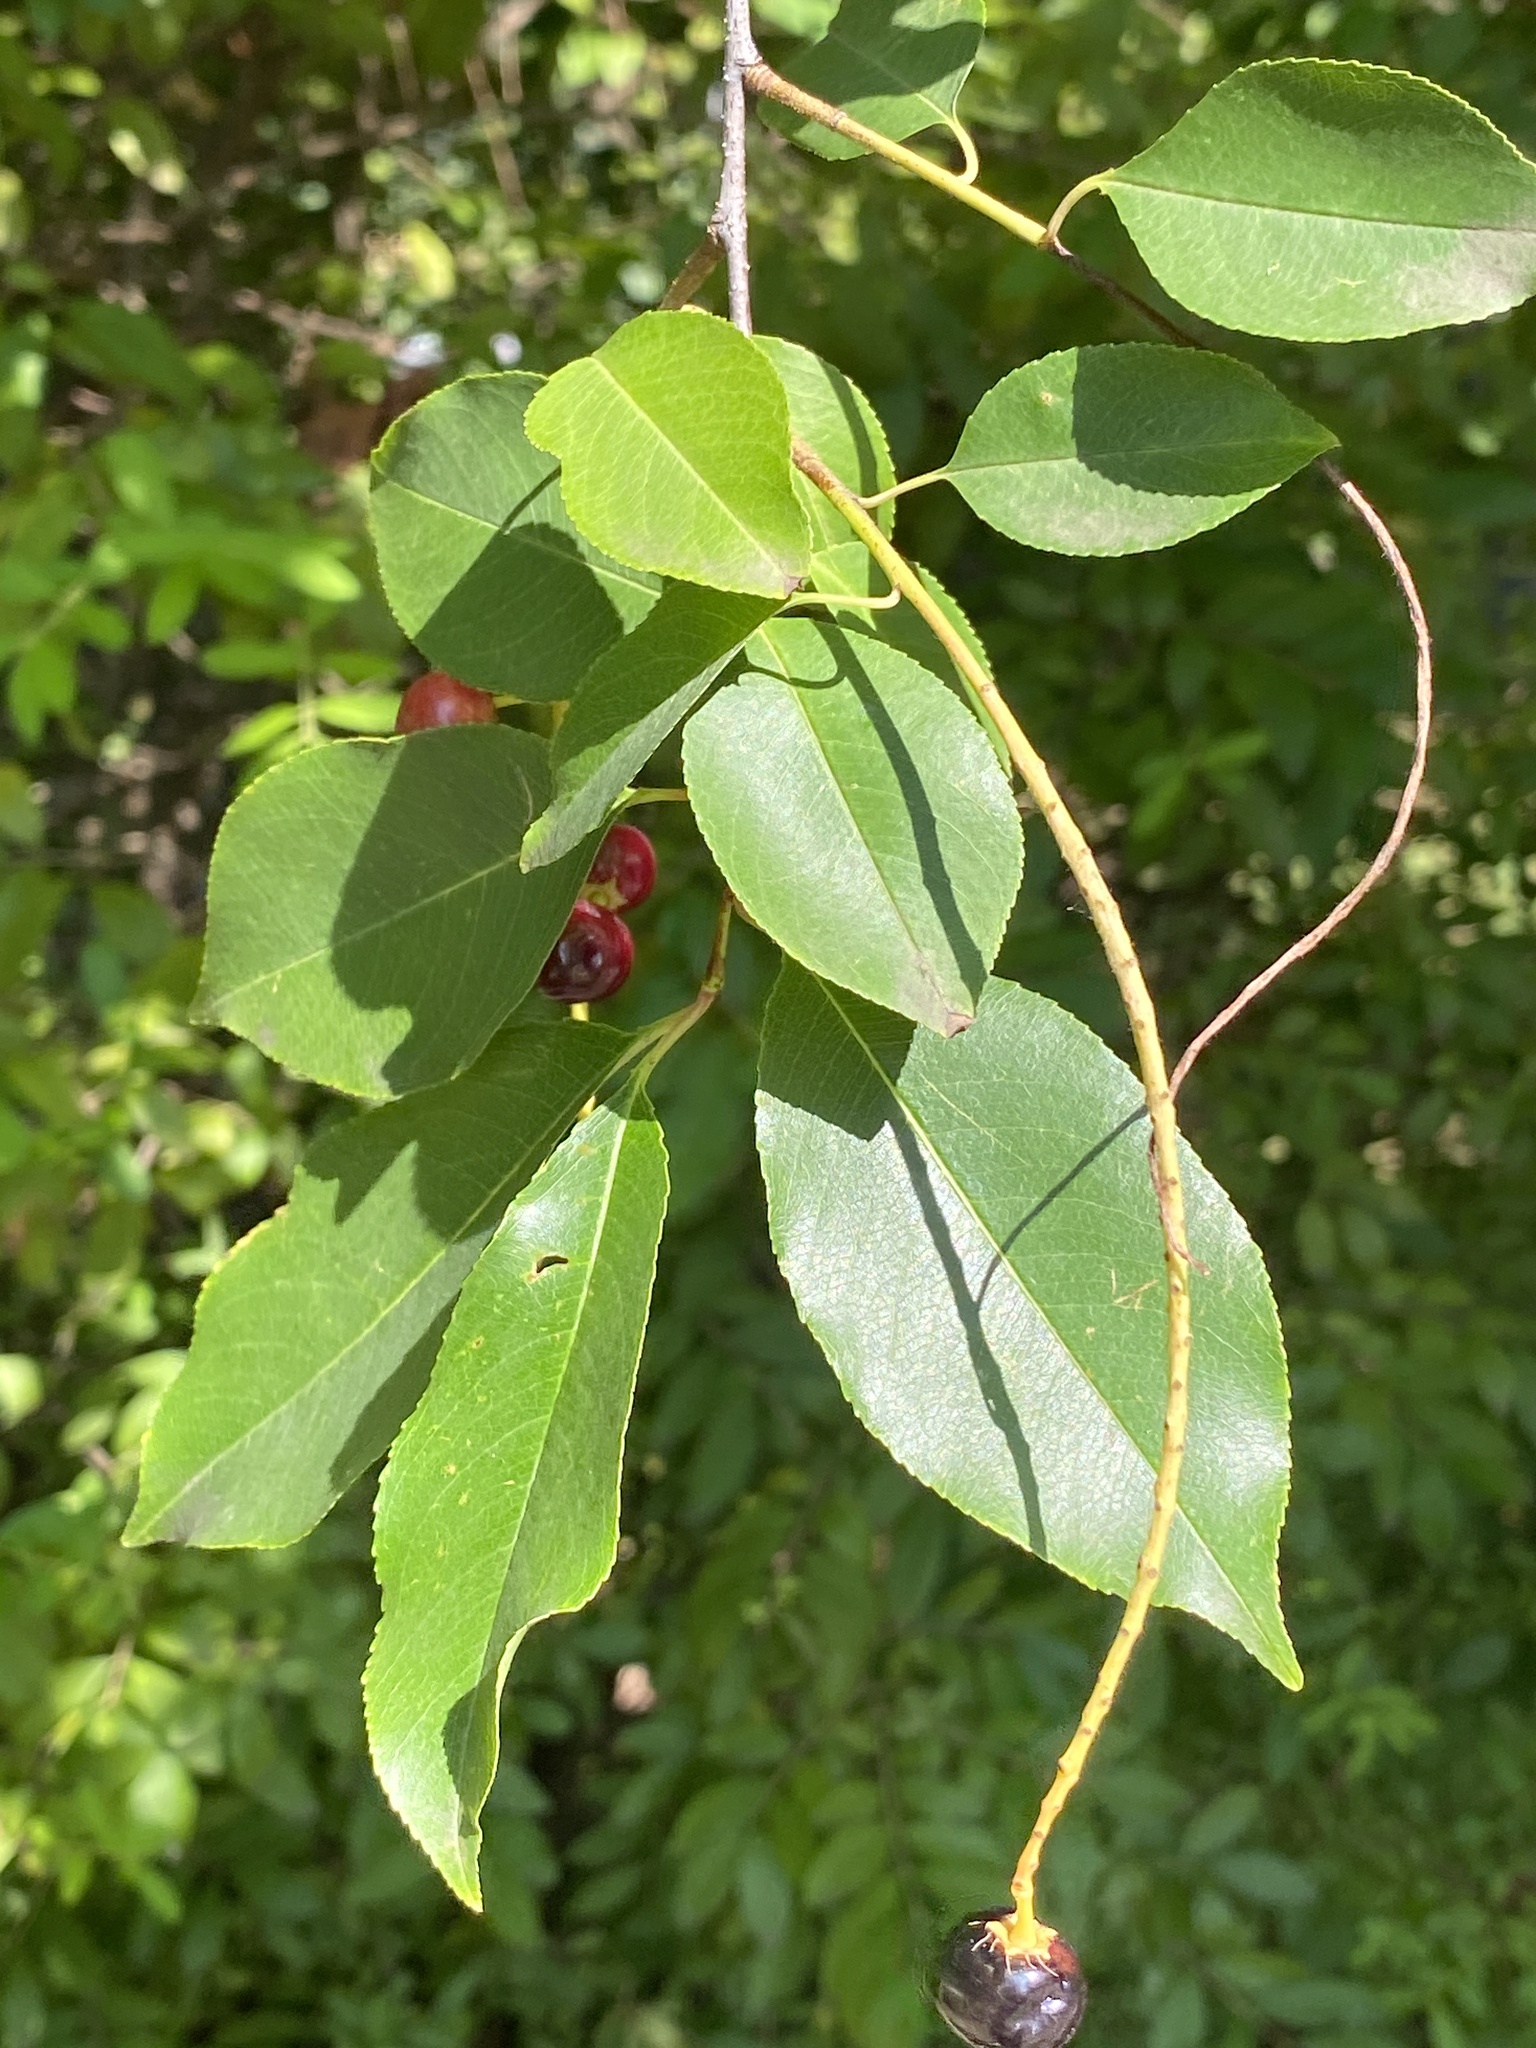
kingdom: Plantae
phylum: Tracheophyta
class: Magnoliopsida
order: Rosales
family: Rosaceae
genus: Prunus
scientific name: Prunus serotina
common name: Black cherry
